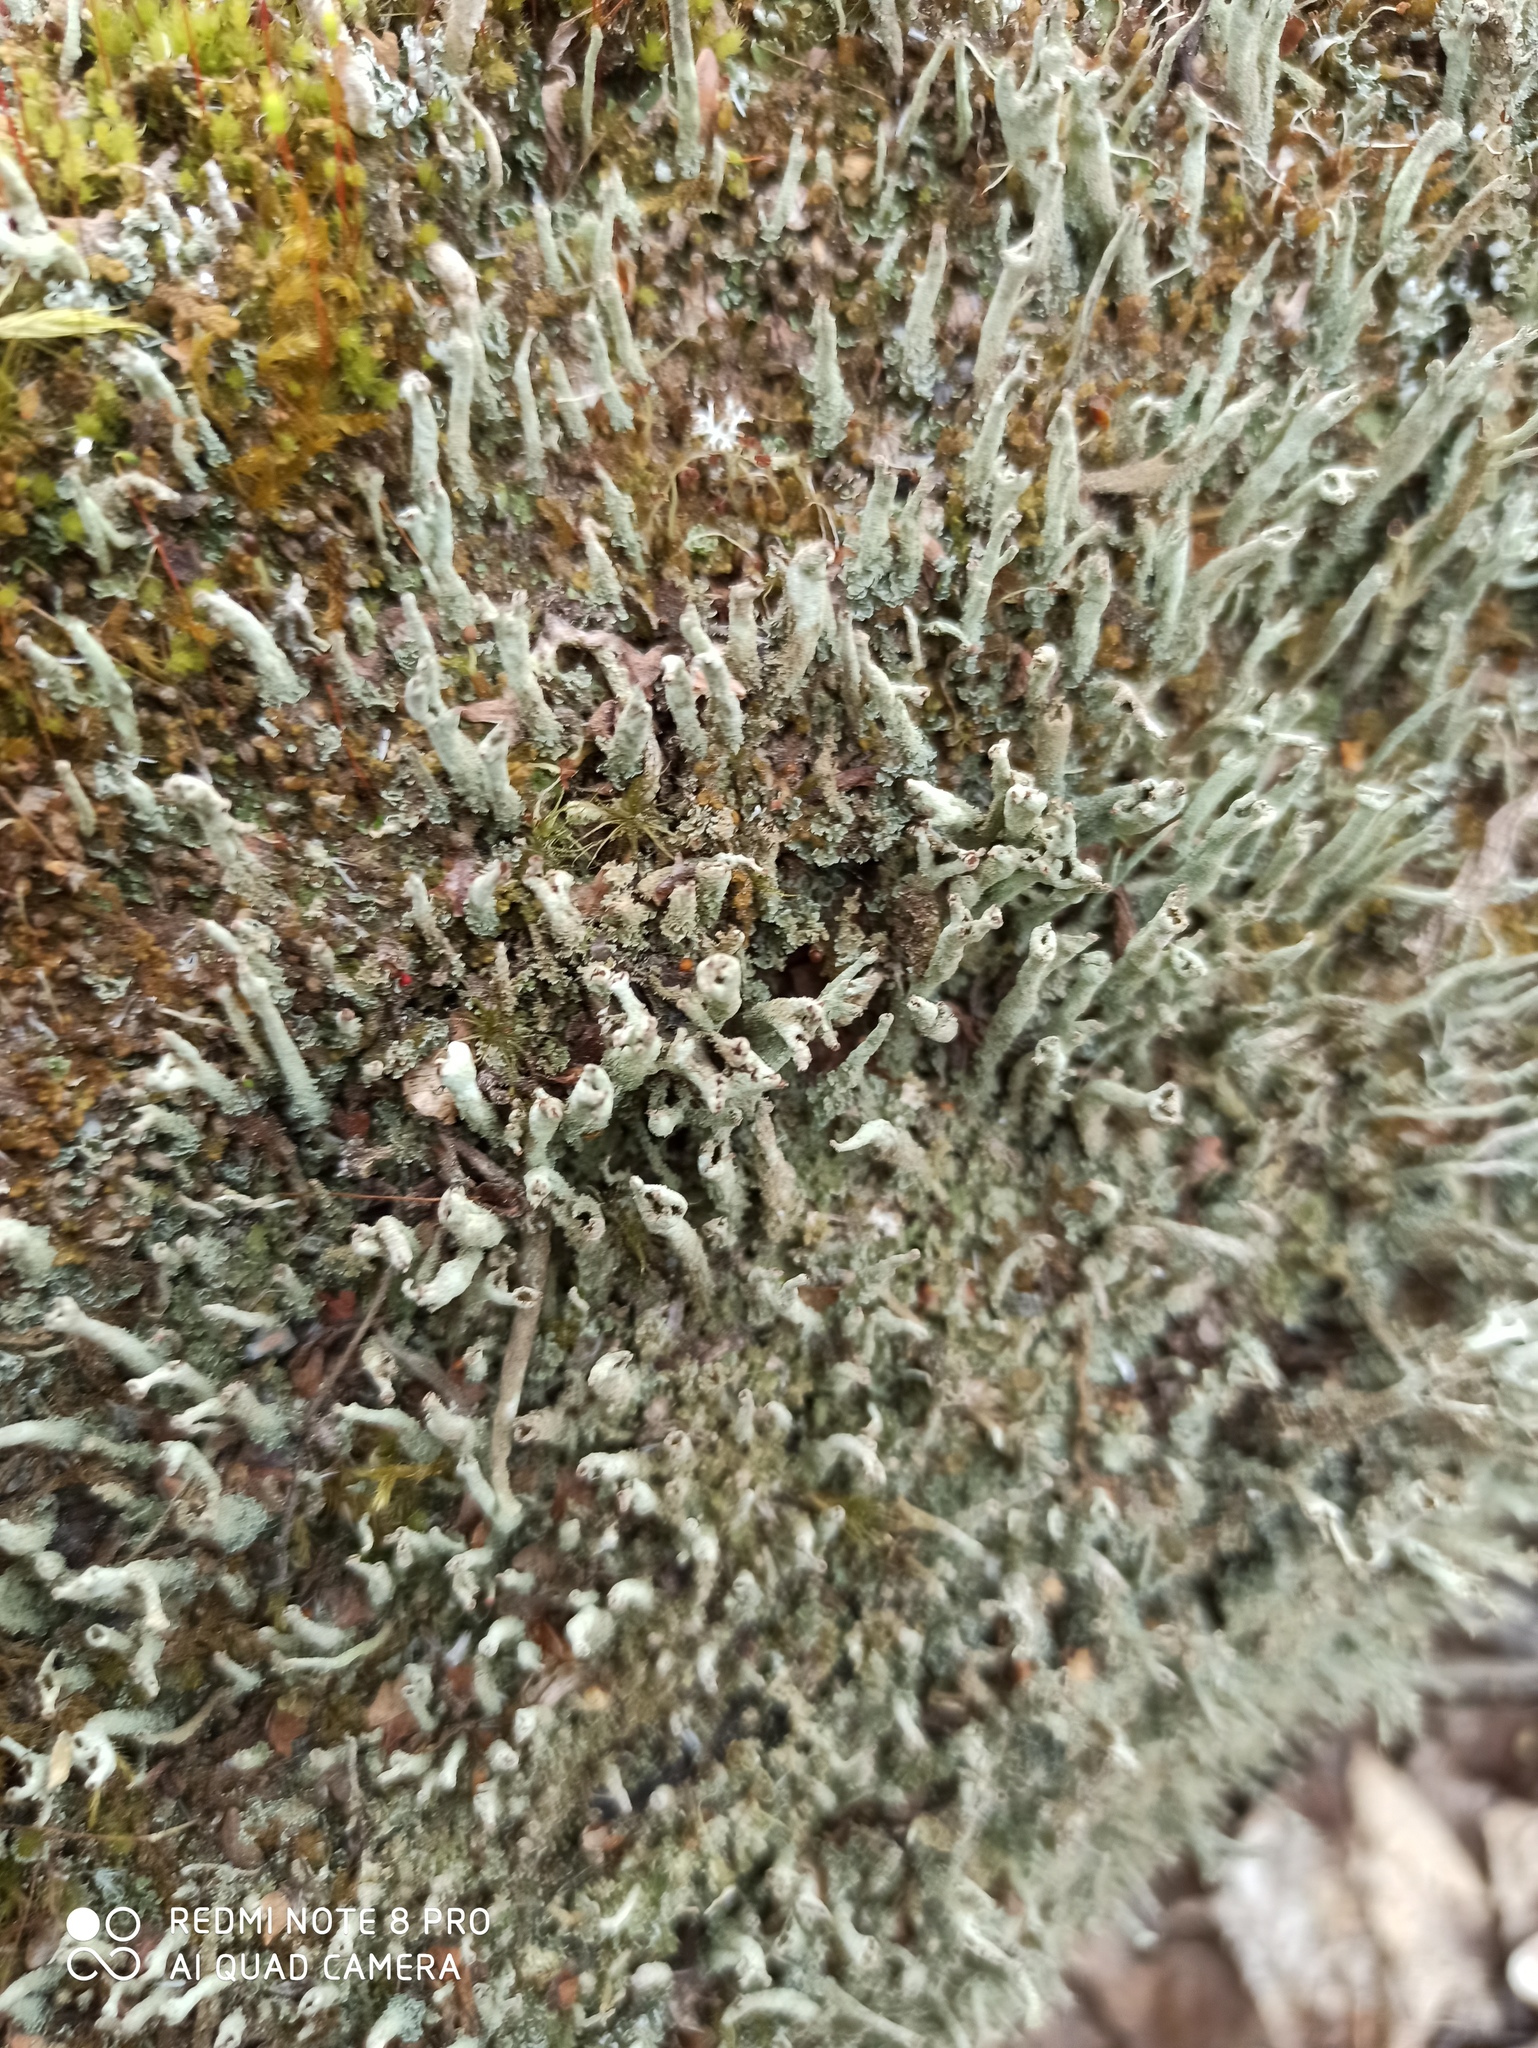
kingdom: Fungi
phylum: Ascomycota
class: Lecanoromycetes
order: Lecanorales
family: Cladoniaceae
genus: Cladonia
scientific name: Cladonia coniocraea
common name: Common powderhorn
